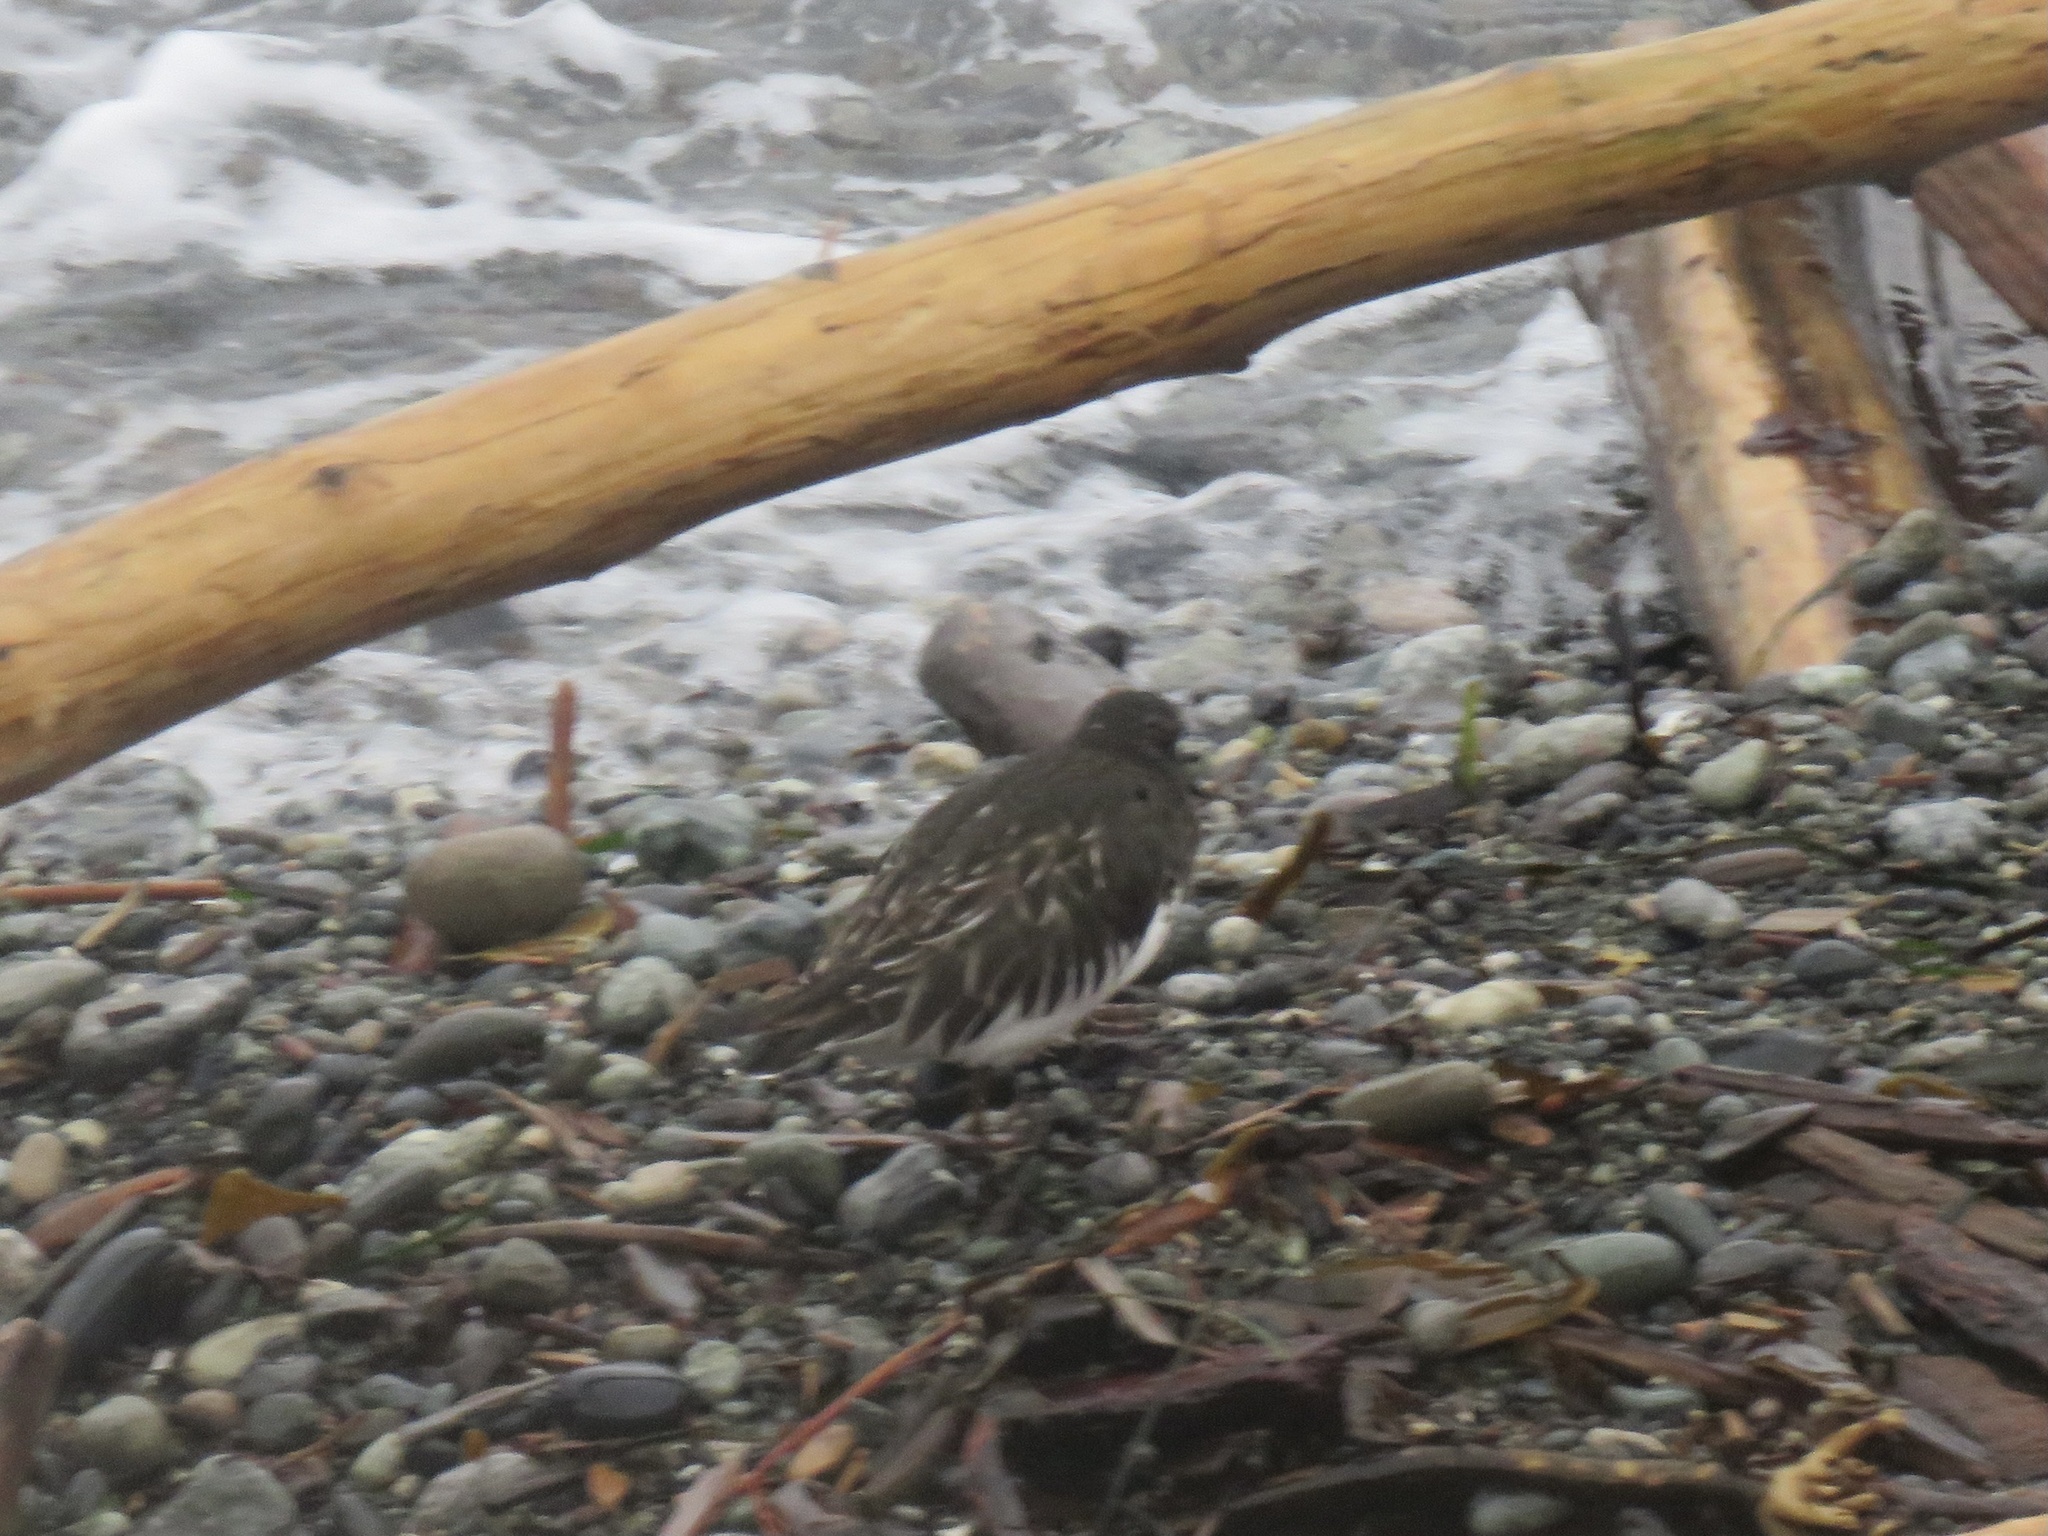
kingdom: Animalia
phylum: Chordata
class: Aves
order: Charadriiformes
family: Scolopacidae
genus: Arenaria
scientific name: Arenaria melanocephala
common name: Black turnstone
